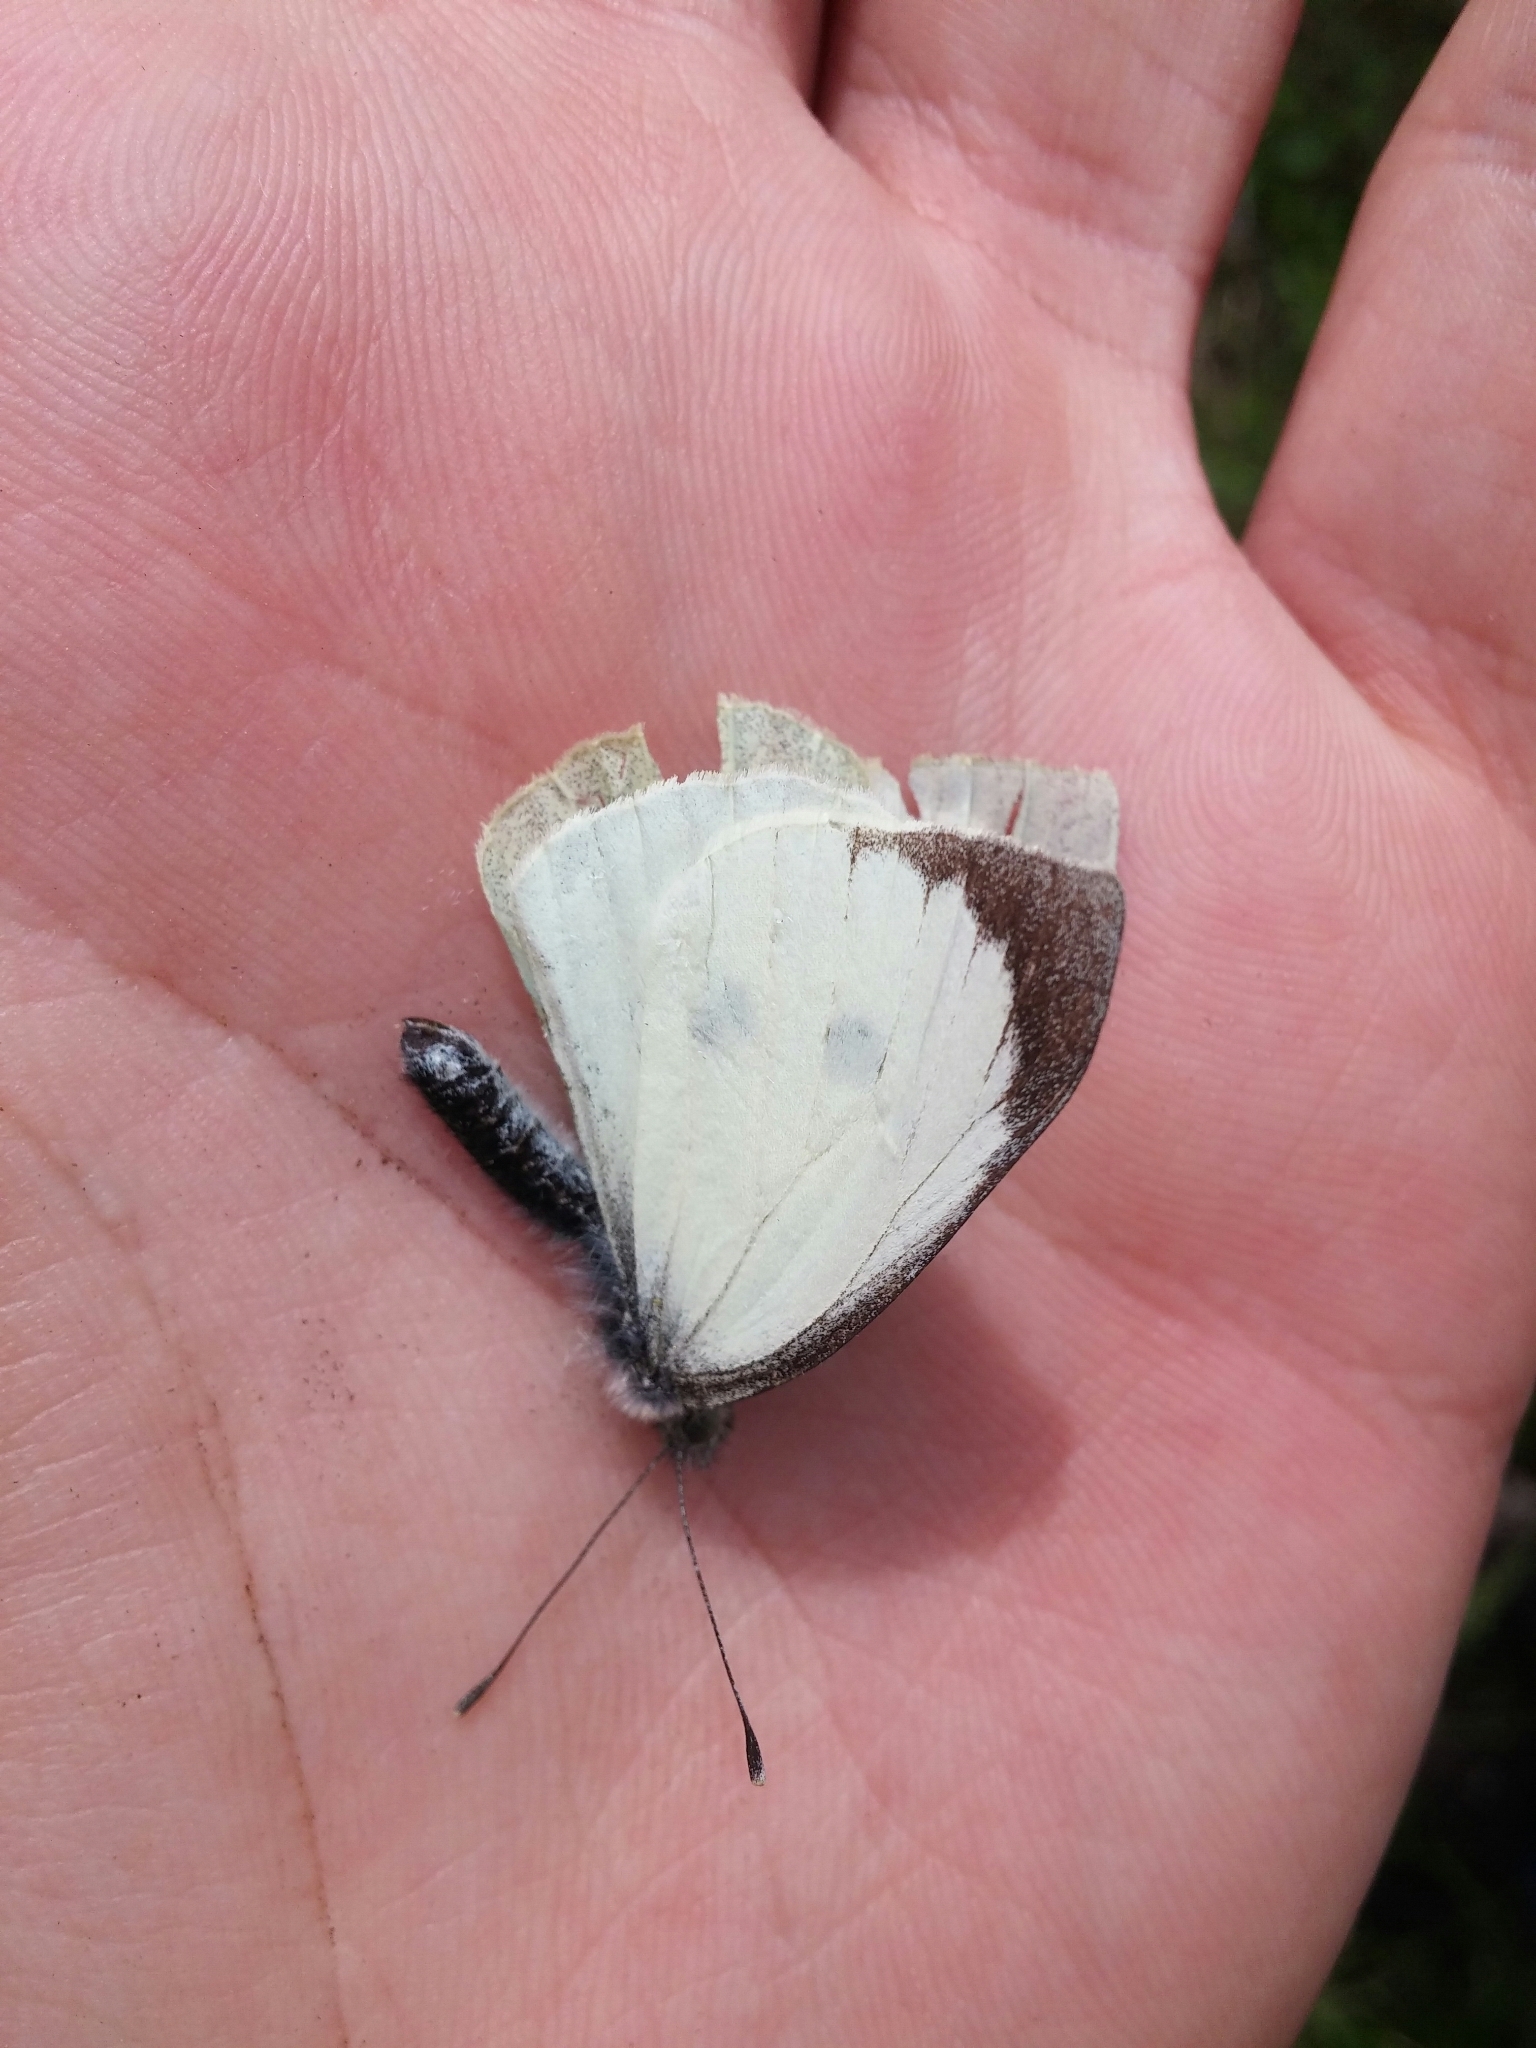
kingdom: Animalia
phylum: Arthropoda
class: Insecta
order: Lepidoptera
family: Pieridae
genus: Pieris
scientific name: Pieris brassicae
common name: Large white
